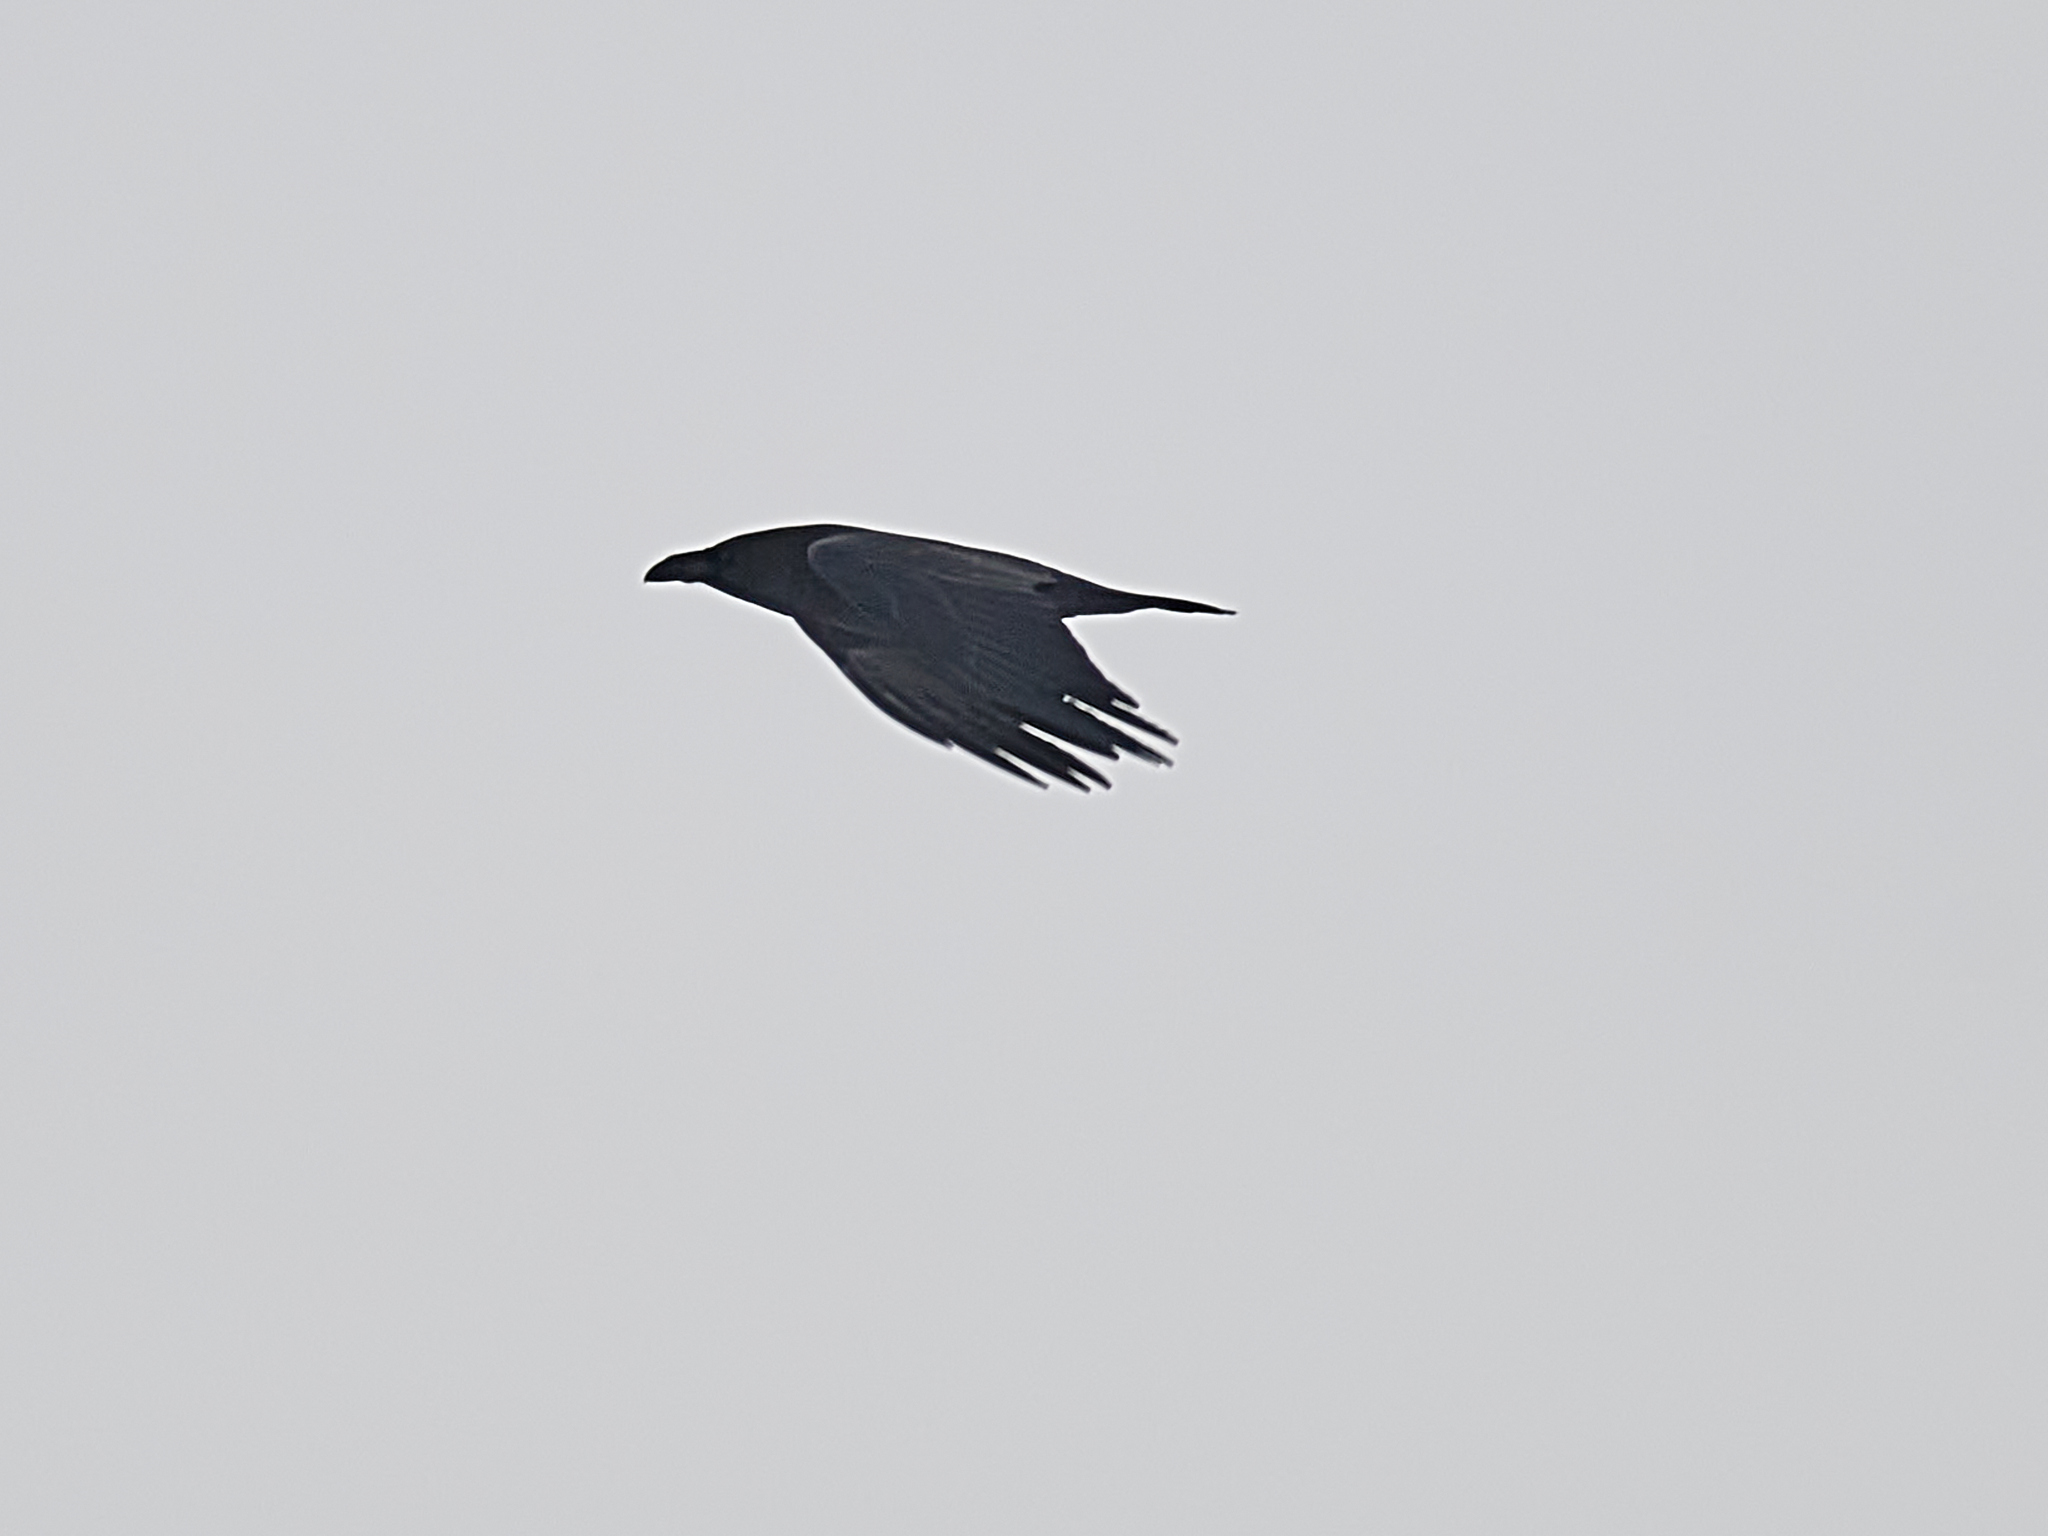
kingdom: Animalia
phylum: Chordata
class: Aves
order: Passeriformes
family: Corvidae
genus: Corvus
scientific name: Corvus corax
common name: Common raven
